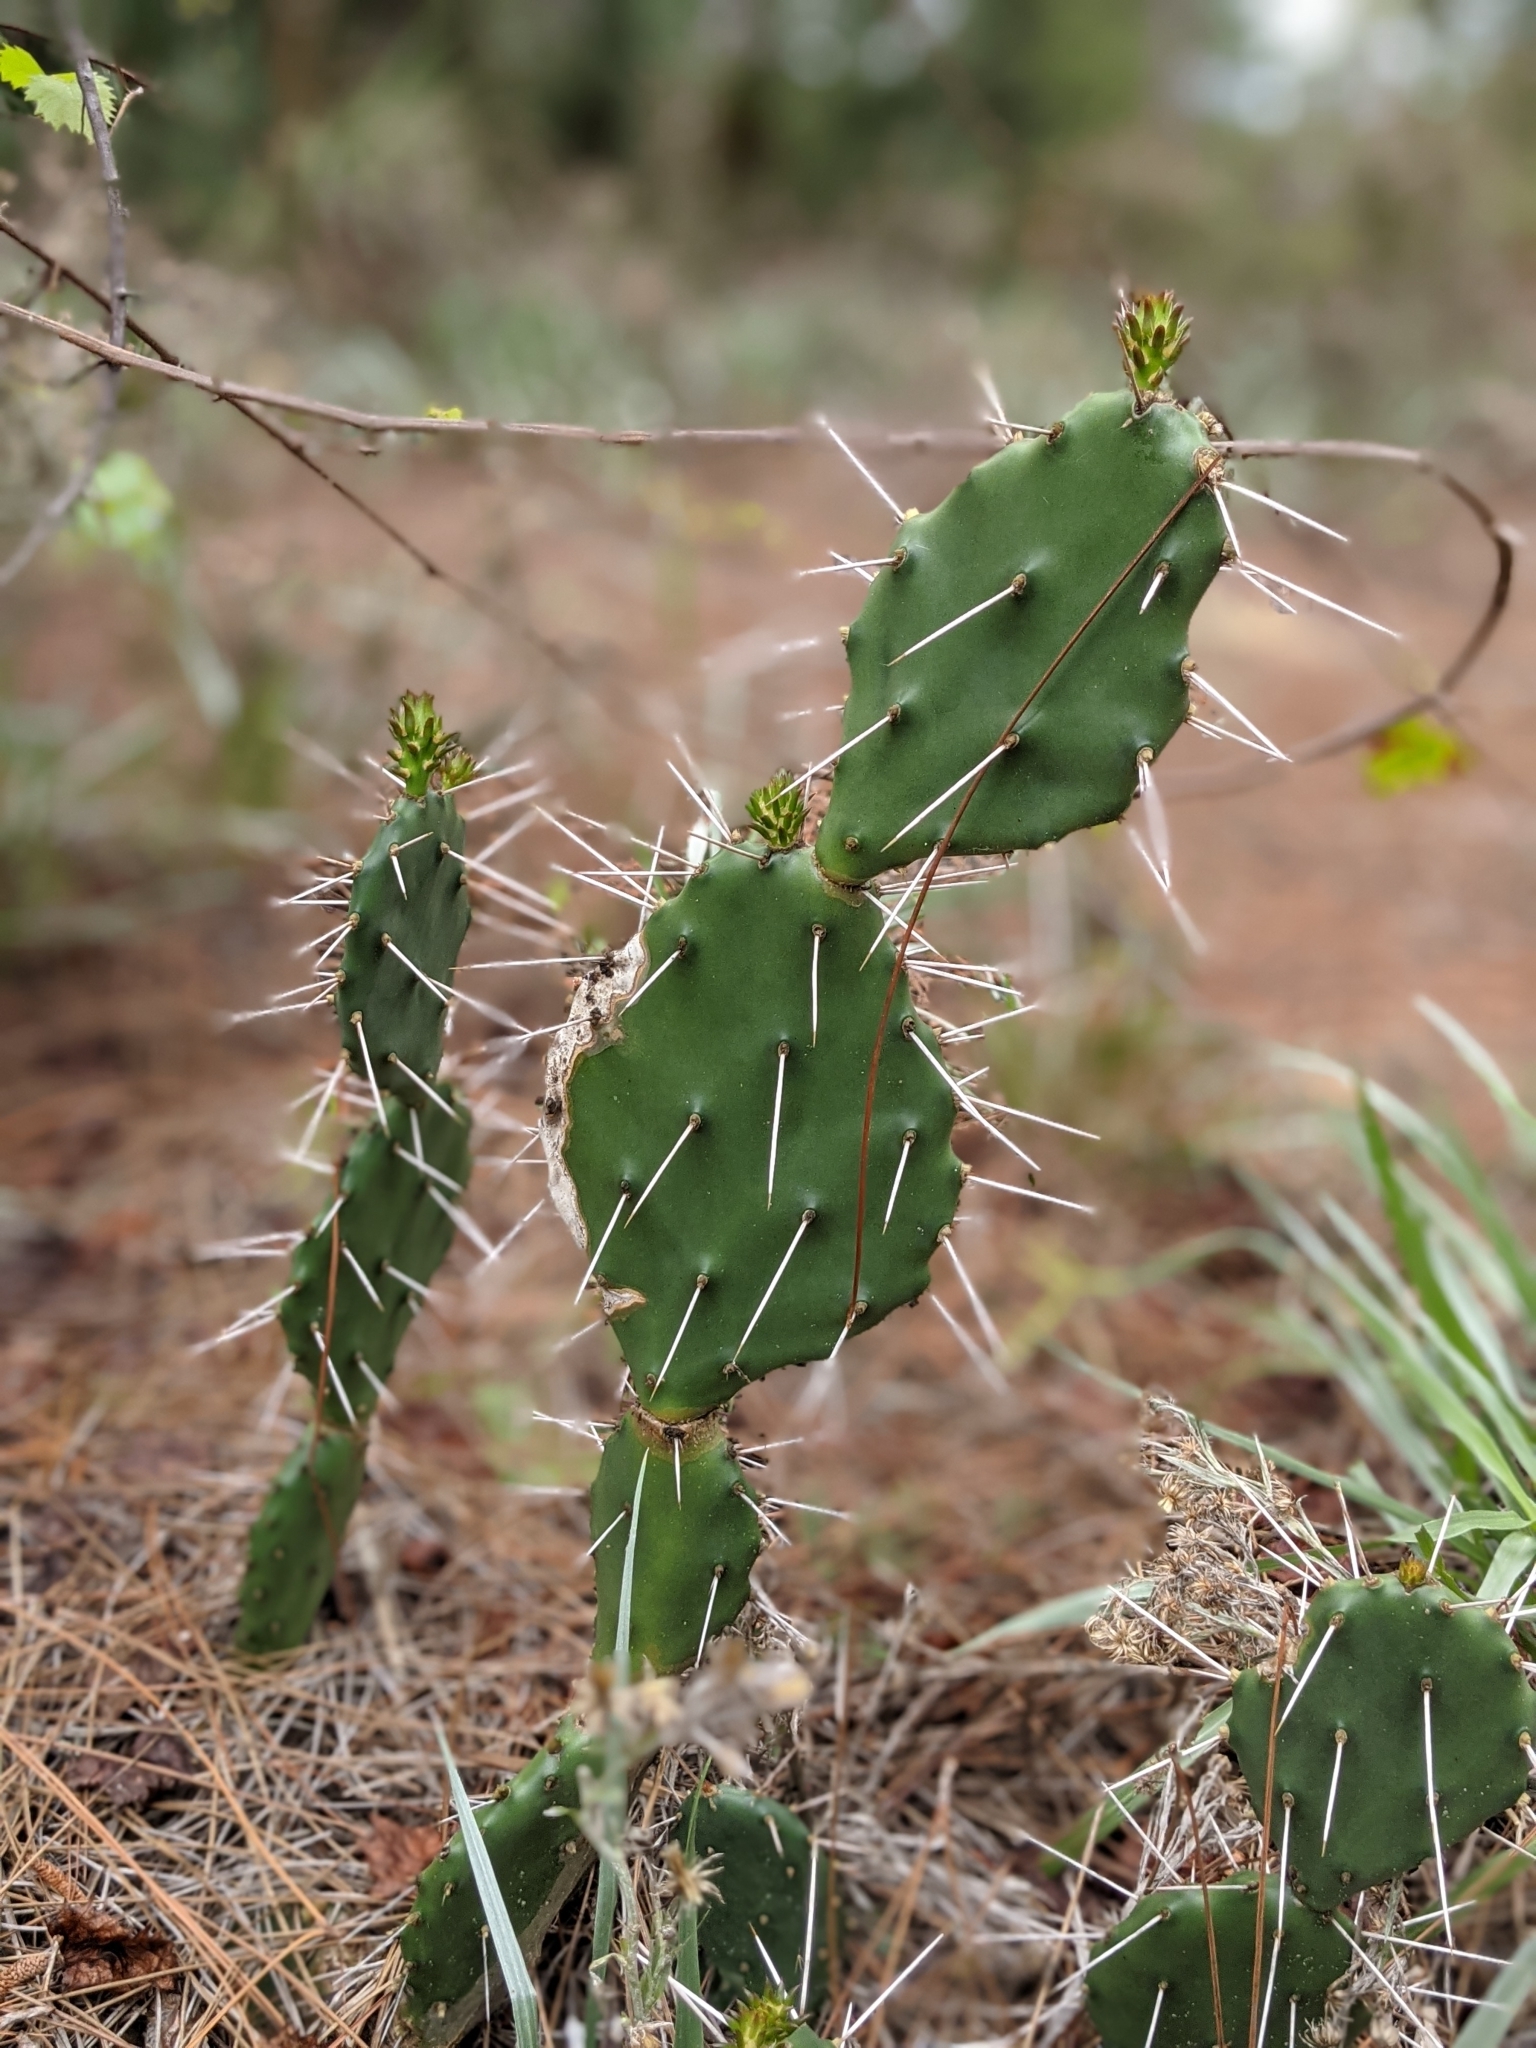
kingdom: Plantae
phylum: Tracheophyta
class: Magnoliopsida
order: Caryophyllales
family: Cactaceae
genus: Opuntia
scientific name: Opuntia austrina
